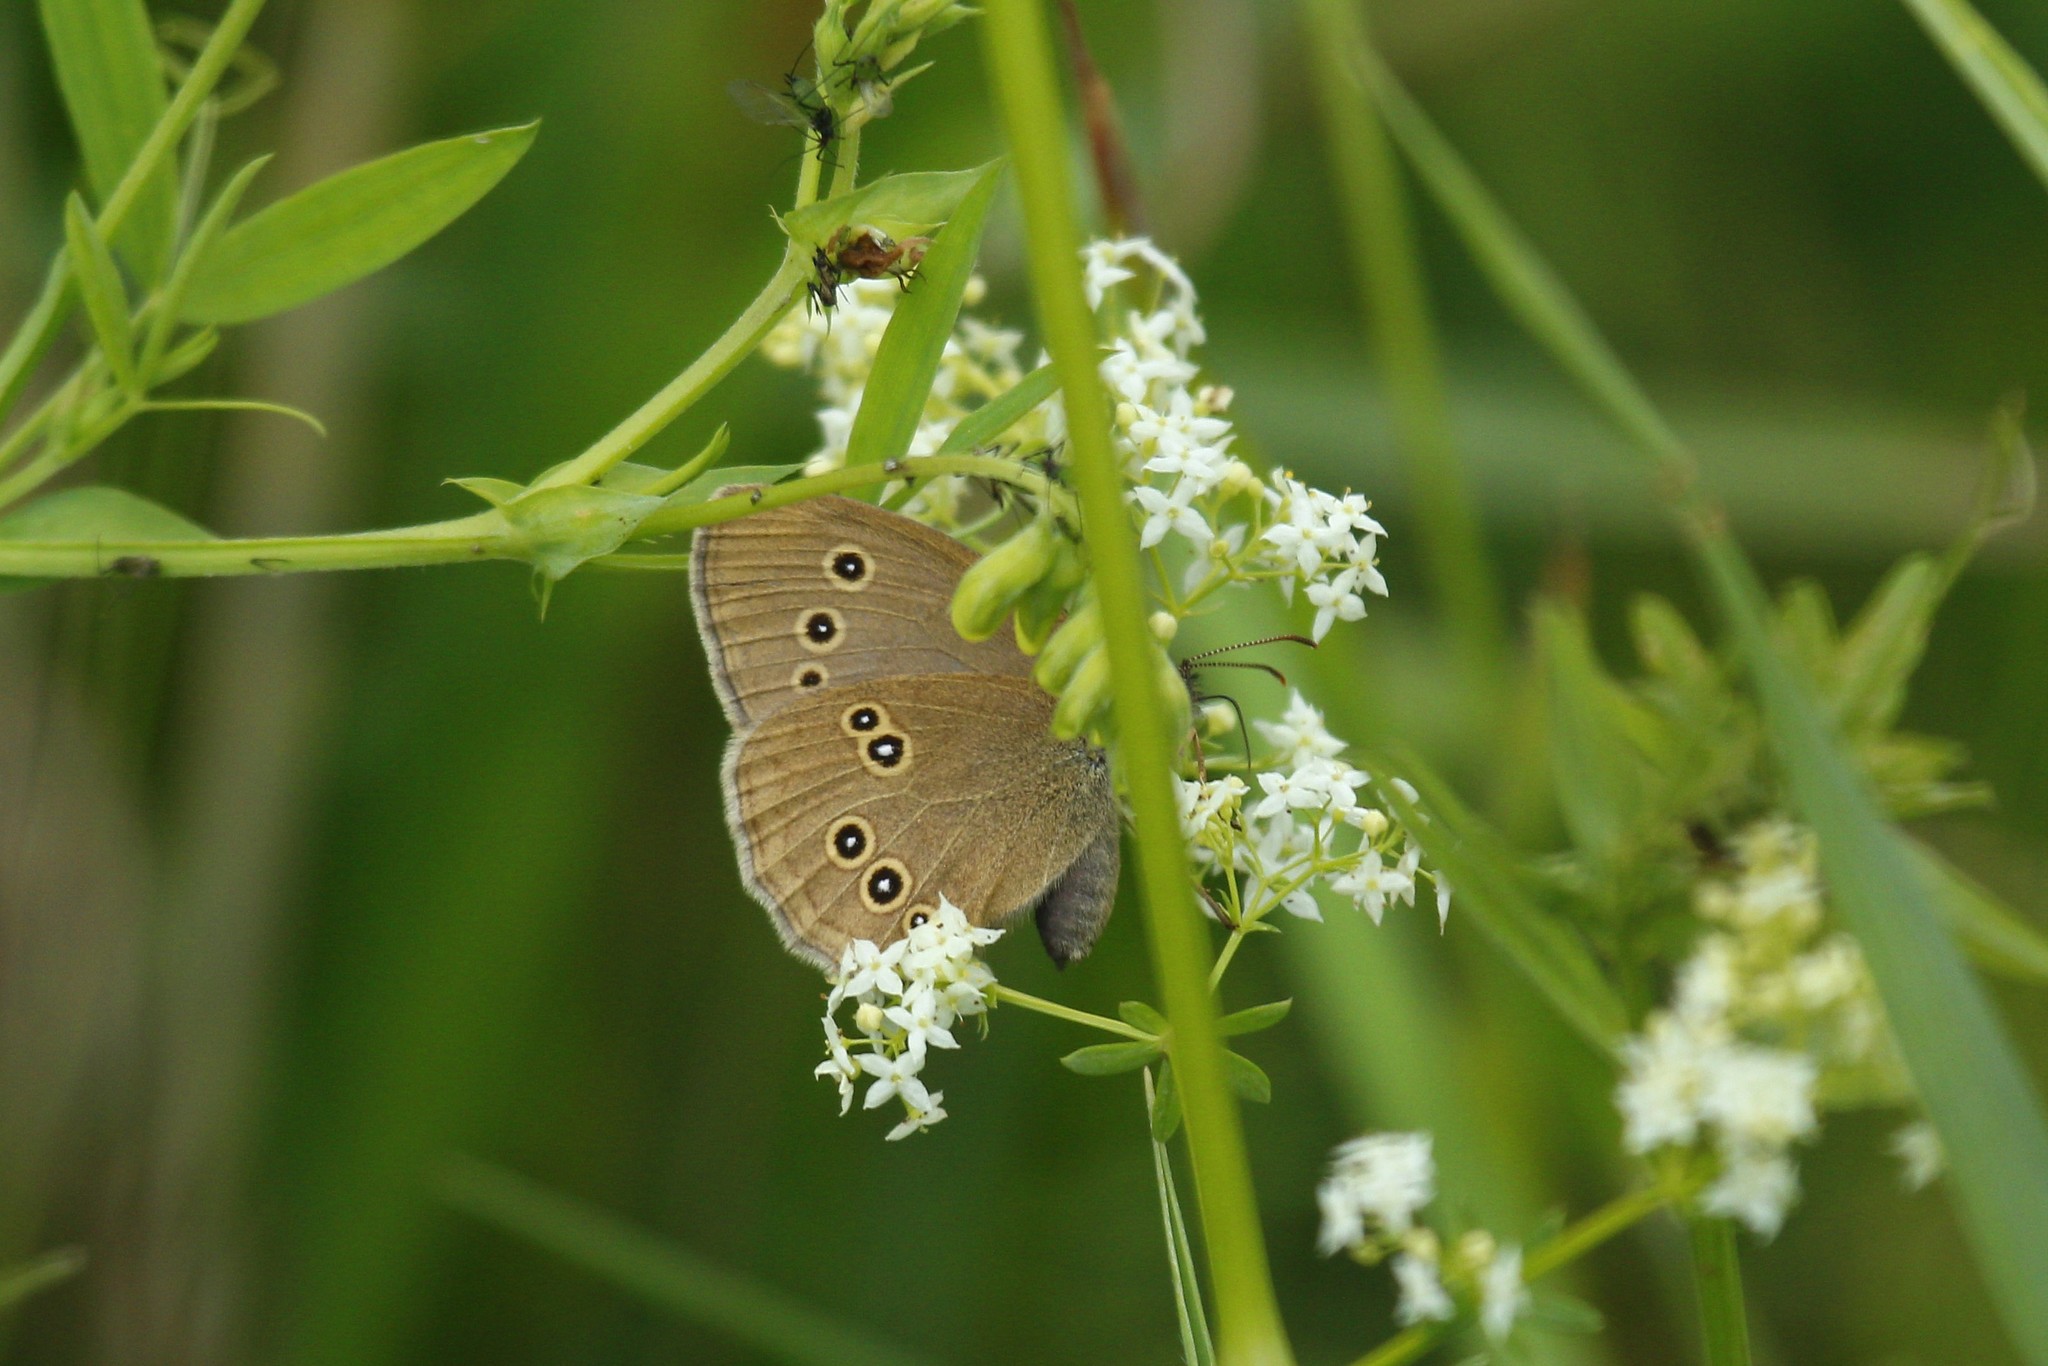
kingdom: Animalia
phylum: Arthropoda
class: Insecta
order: Lepidoptera
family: Nymphalidae
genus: Aphantopus
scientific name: Aphantopus hyperantus
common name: Ringlet
